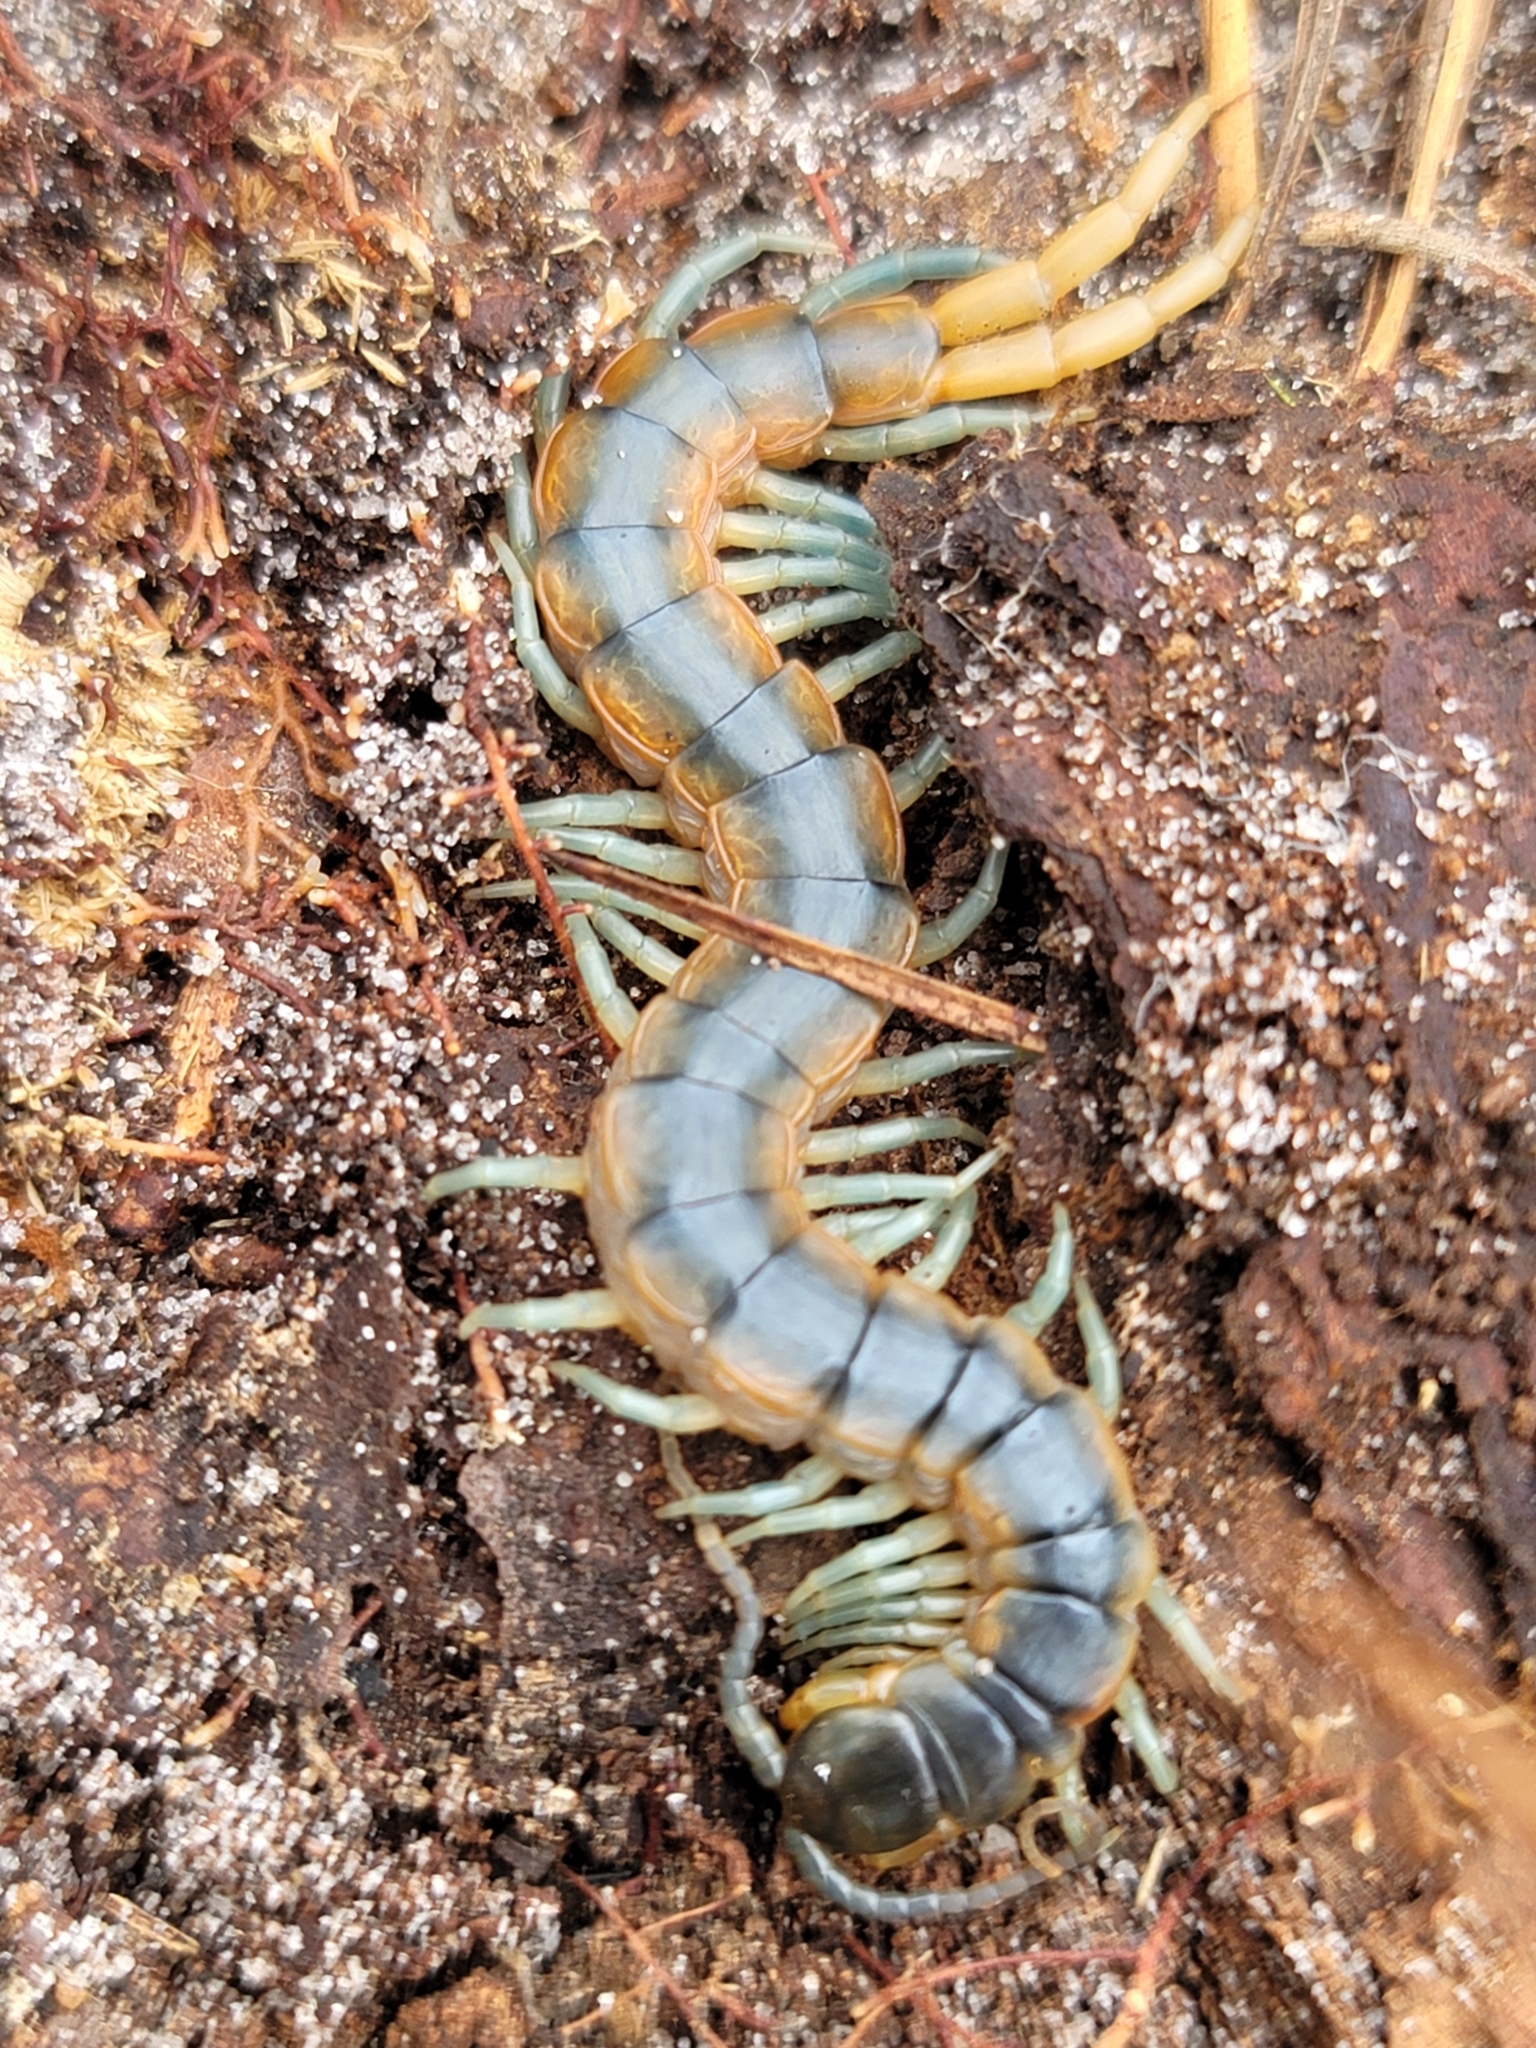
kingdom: Animalia
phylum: Arthropoda
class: Chilopoda
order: Scolopendromorpha
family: Scolopendridae
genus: Scolopendra
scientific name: Scolopendra viridis
